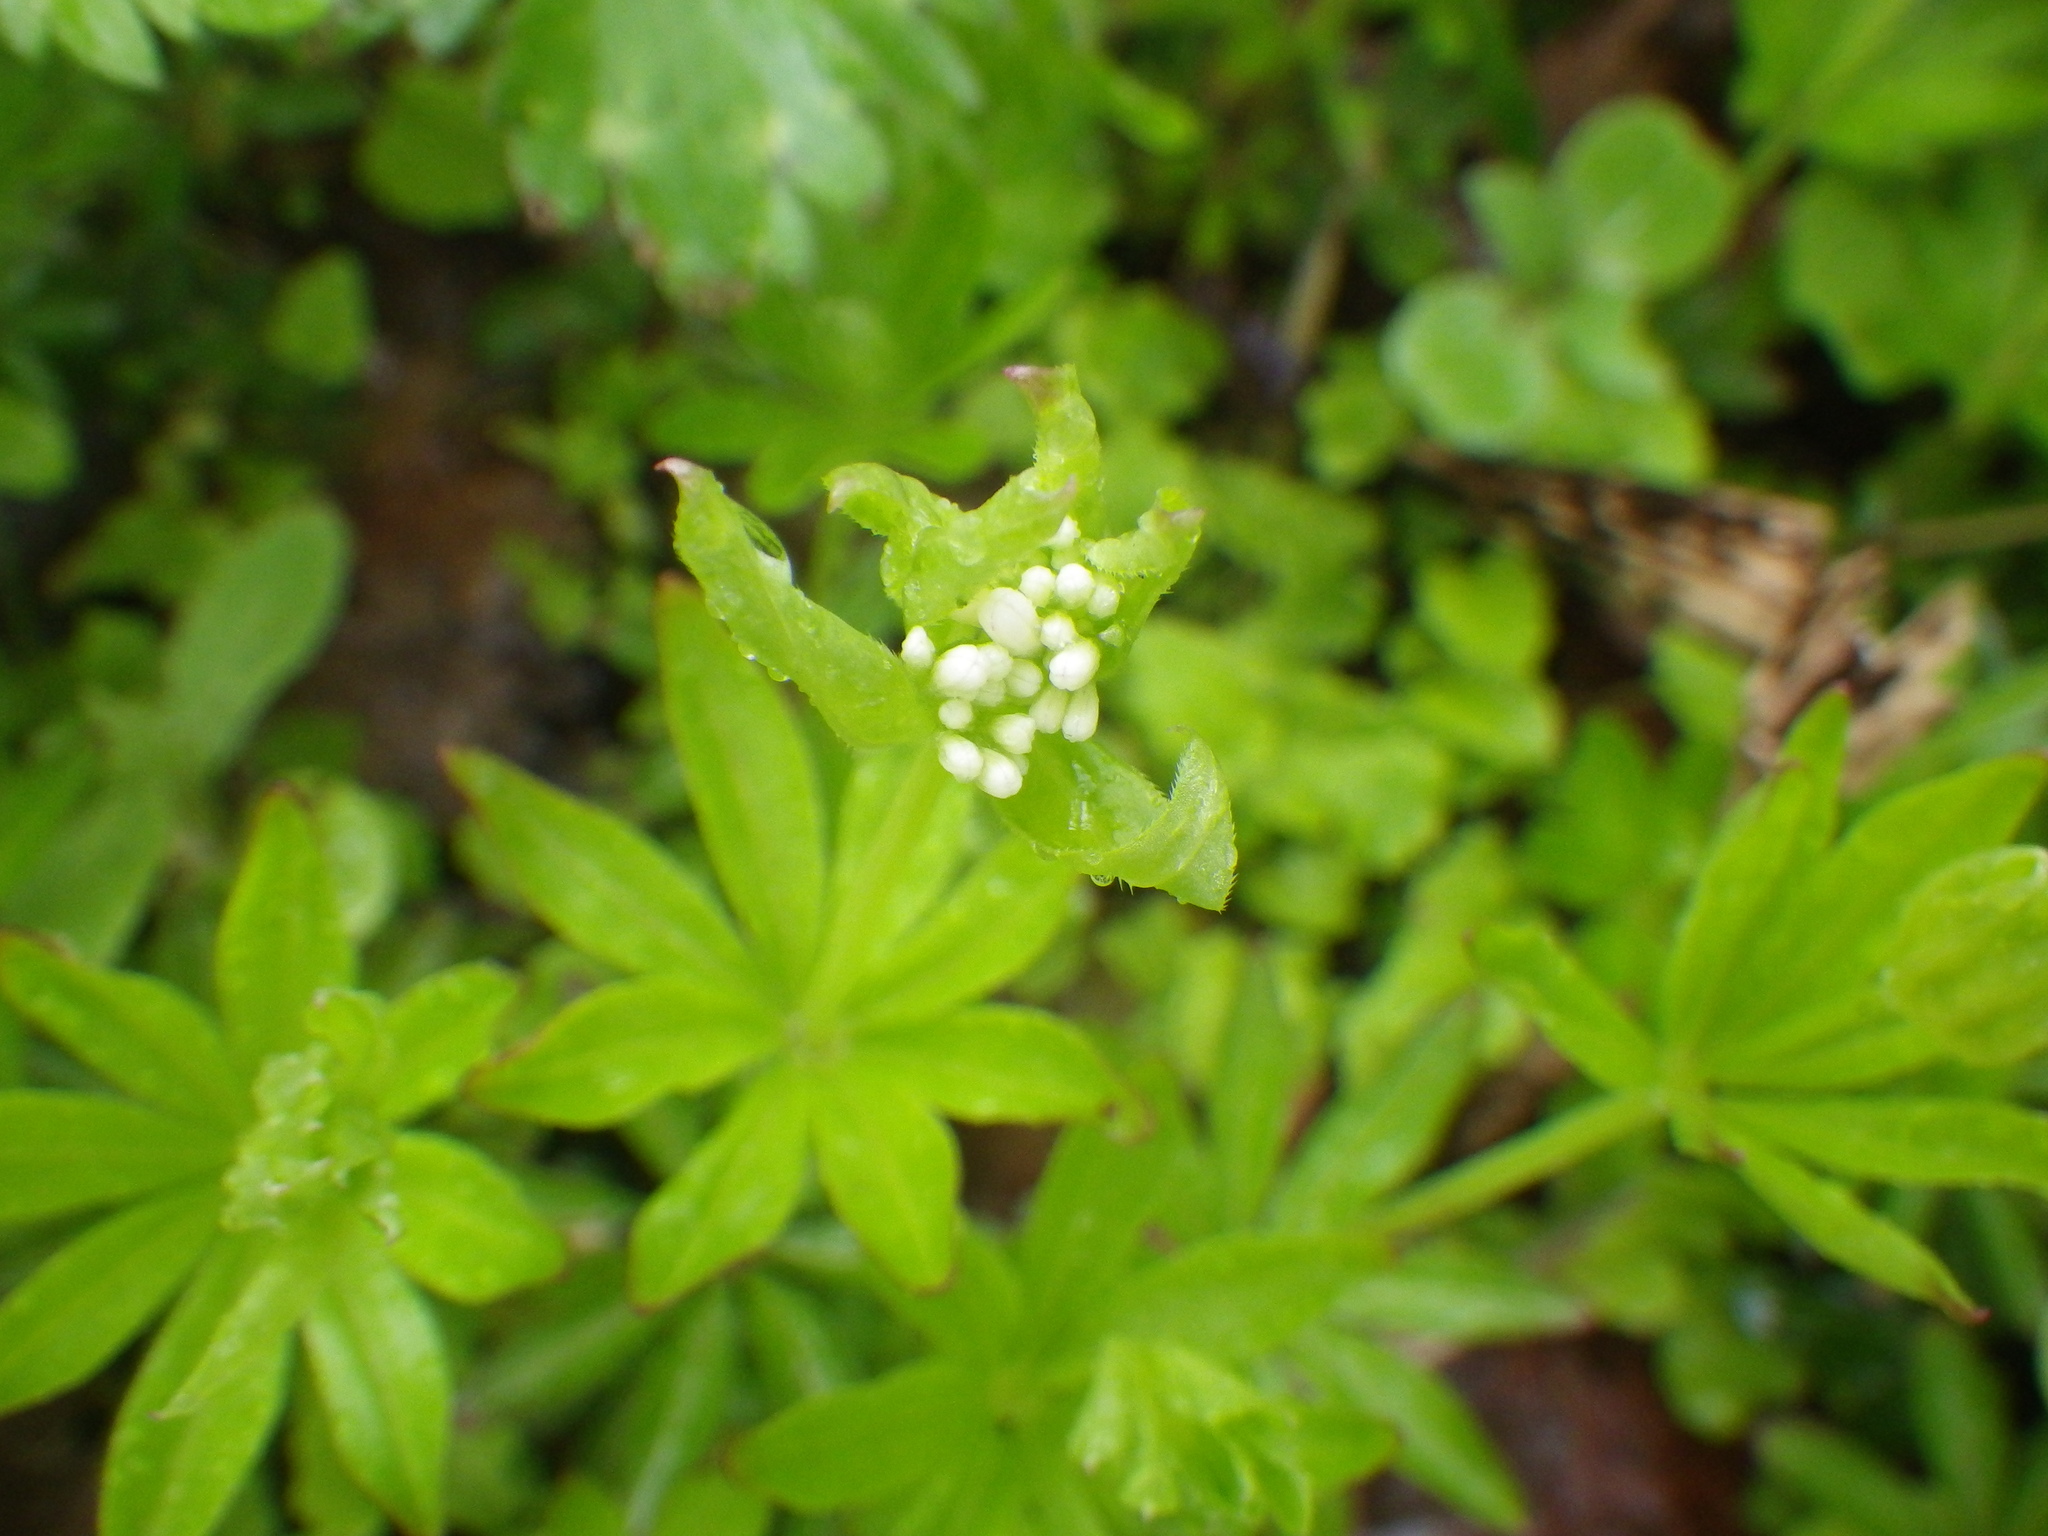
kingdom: Plantae
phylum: Tracheophyta
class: Magnoliopsida
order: Gentianales
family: Rubiaceae
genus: Galium
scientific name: Galium odoratum
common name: Sweet woodruff
